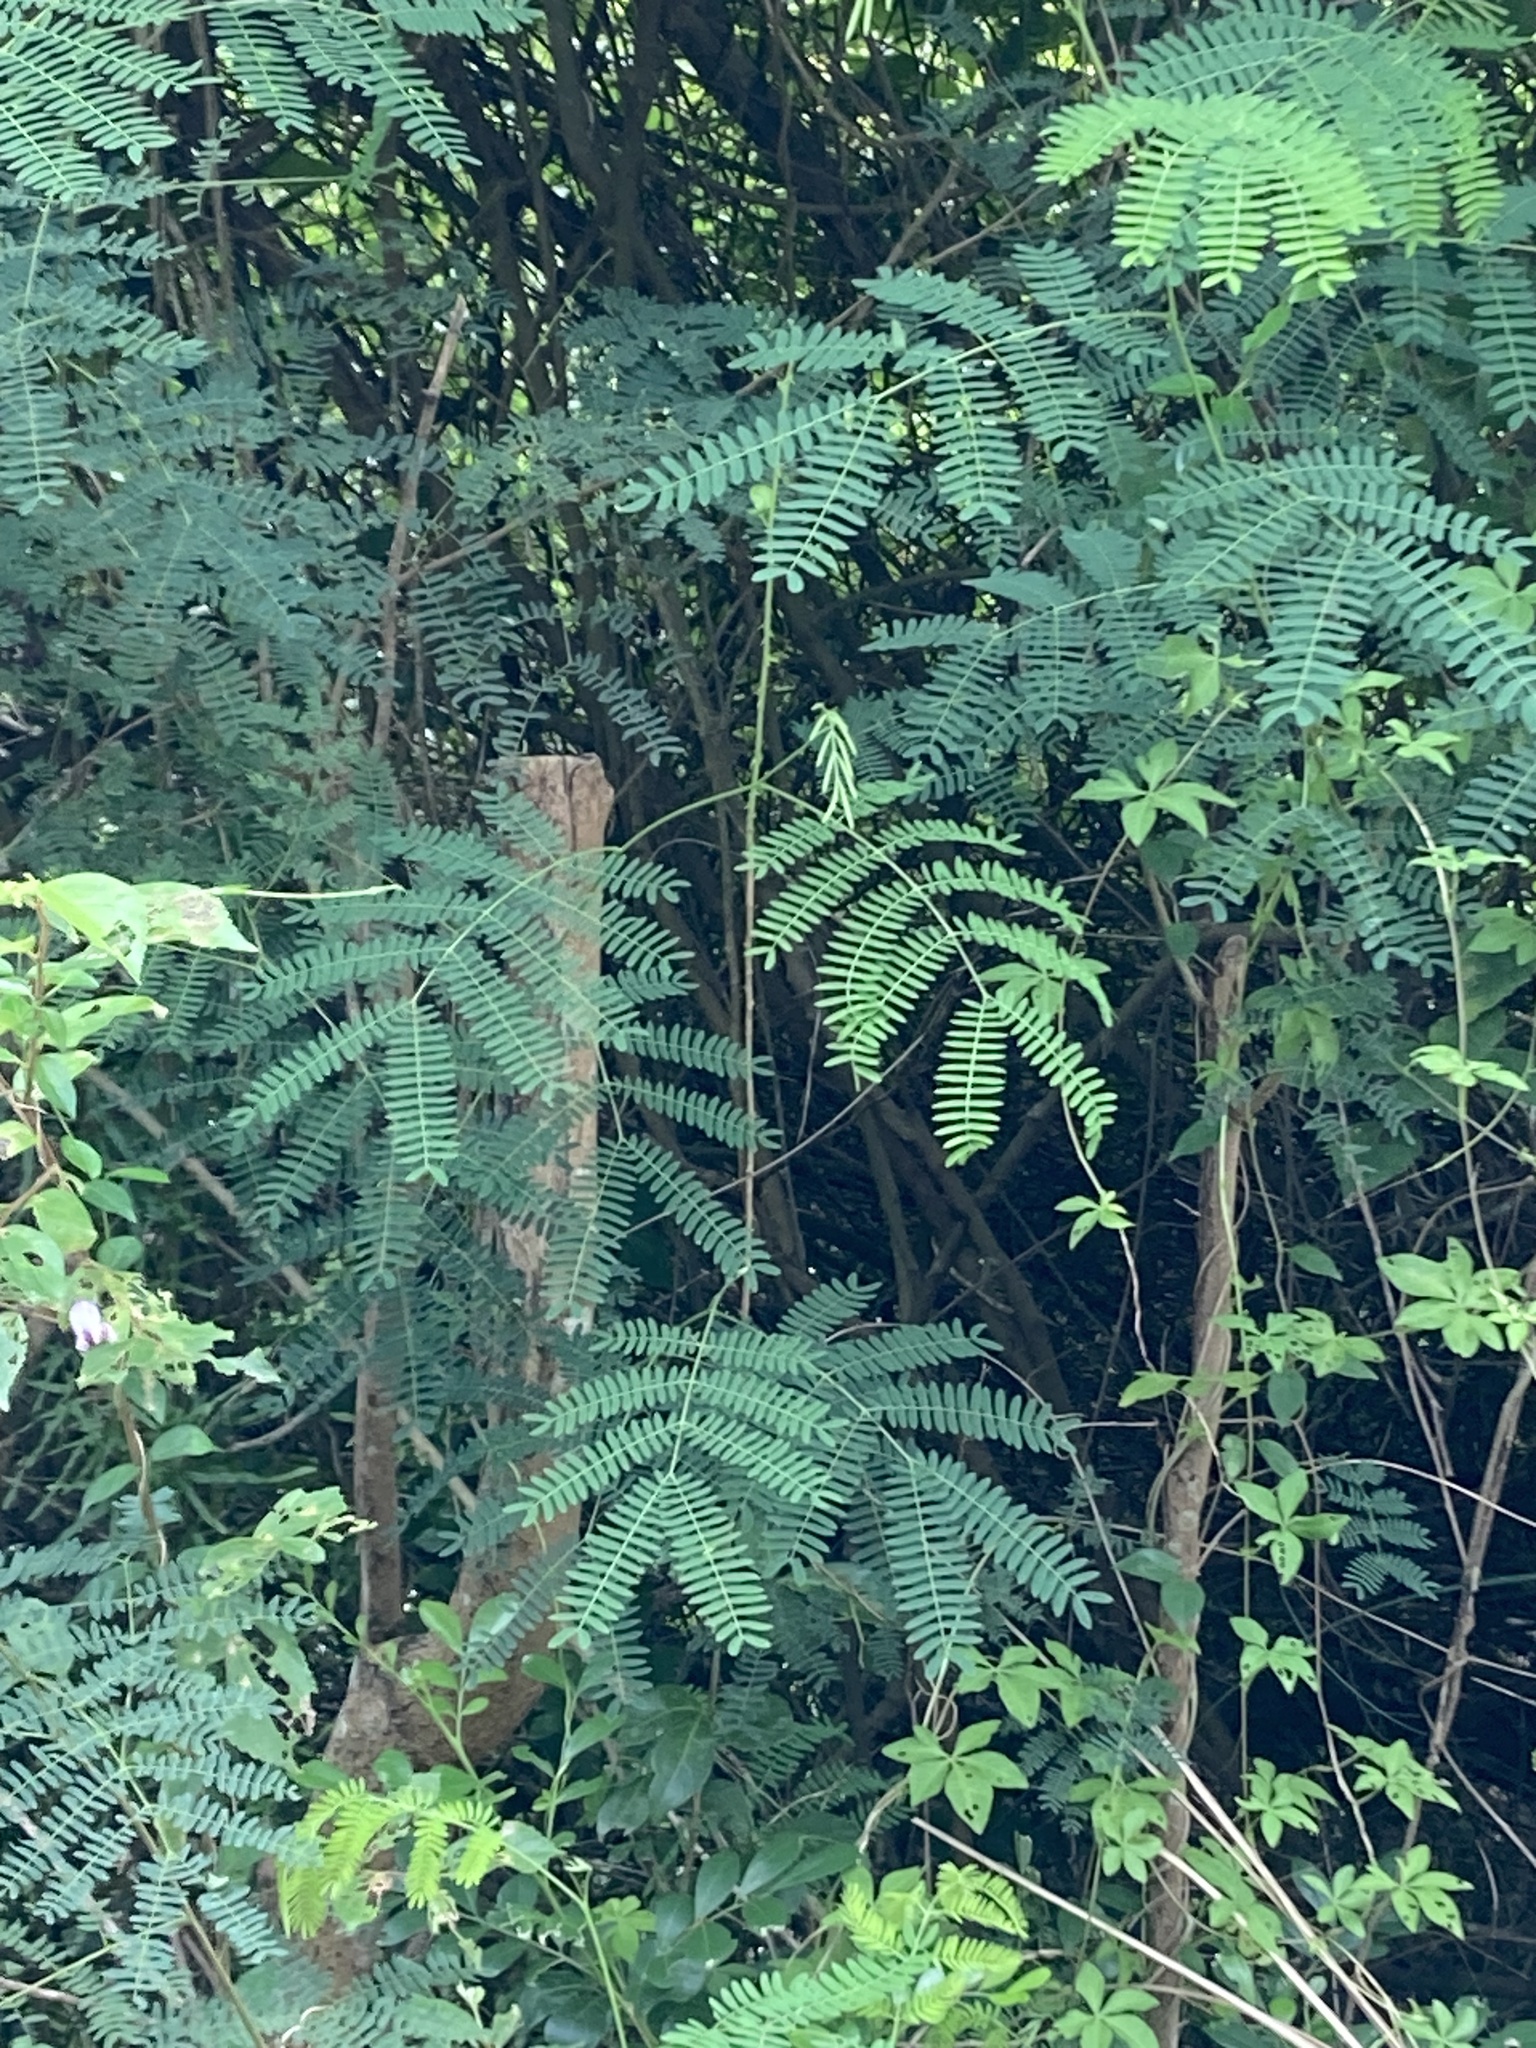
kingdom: Plantae
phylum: Tracheophyta
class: Magnoliopsida
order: Fabales
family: Fabaceae
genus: Leucaena
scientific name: Leucaena leucocephala
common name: White leadtree
